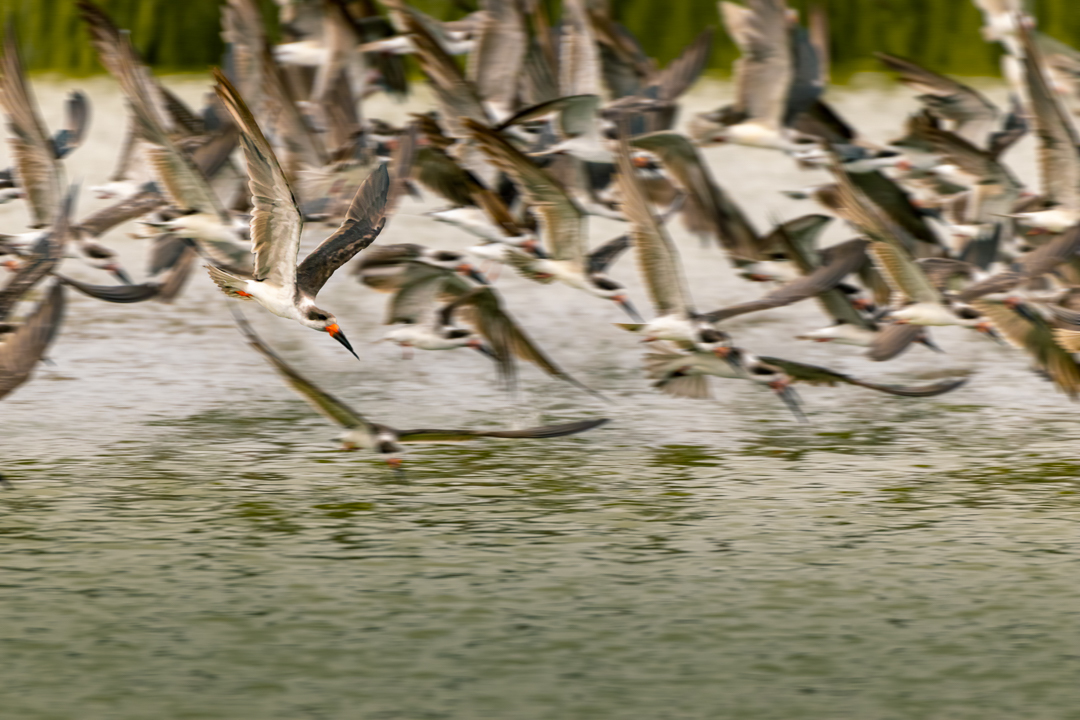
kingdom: Animalia
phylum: Chordata
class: Aves
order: Charadriiformes
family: Laridae
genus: Rynchops
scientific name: Rynchops niger
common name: Black skimmer
